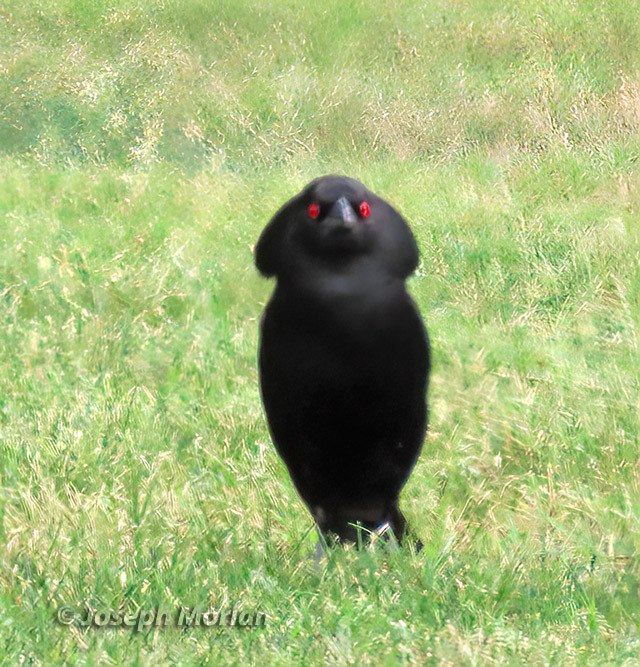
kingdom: Animalia
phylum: Chordata
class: Aves
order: Passeriformes
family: Icteridae
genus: Molothrus
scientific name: Molothrus aeneus
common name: Bronzed cowbird
